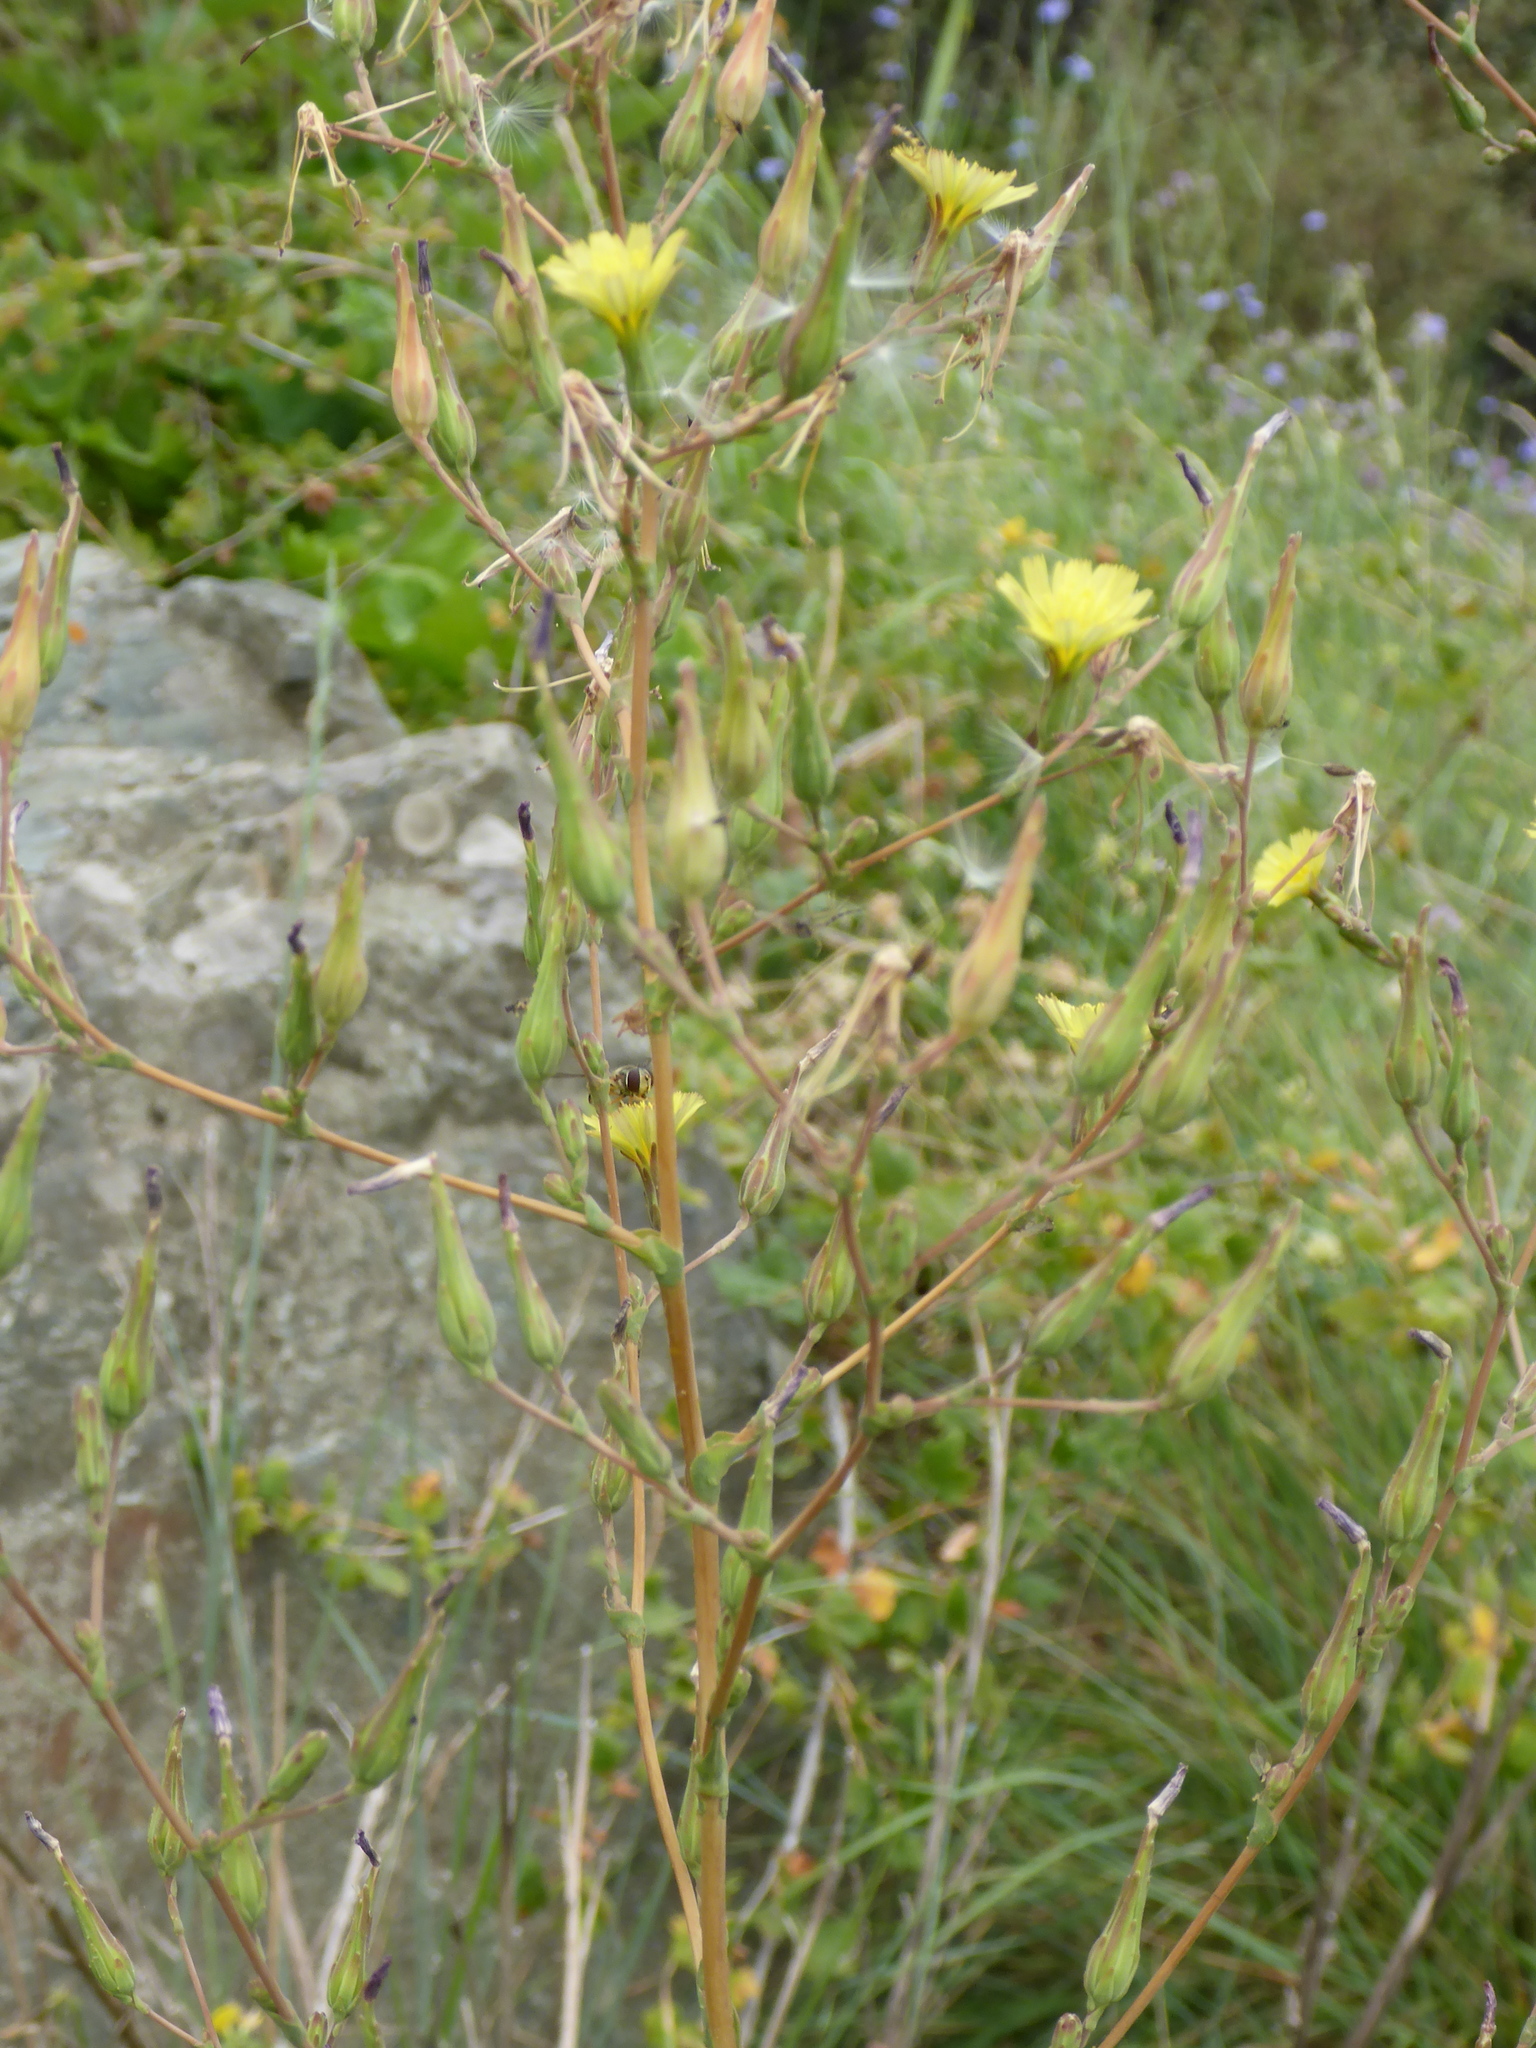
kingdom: Plantae
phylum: Tracheophyta
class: Magnoliopsida
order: Asterales
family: Asteraceae
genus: Lactuca
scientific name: Lactuca serriola
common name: Prickly lettuce
